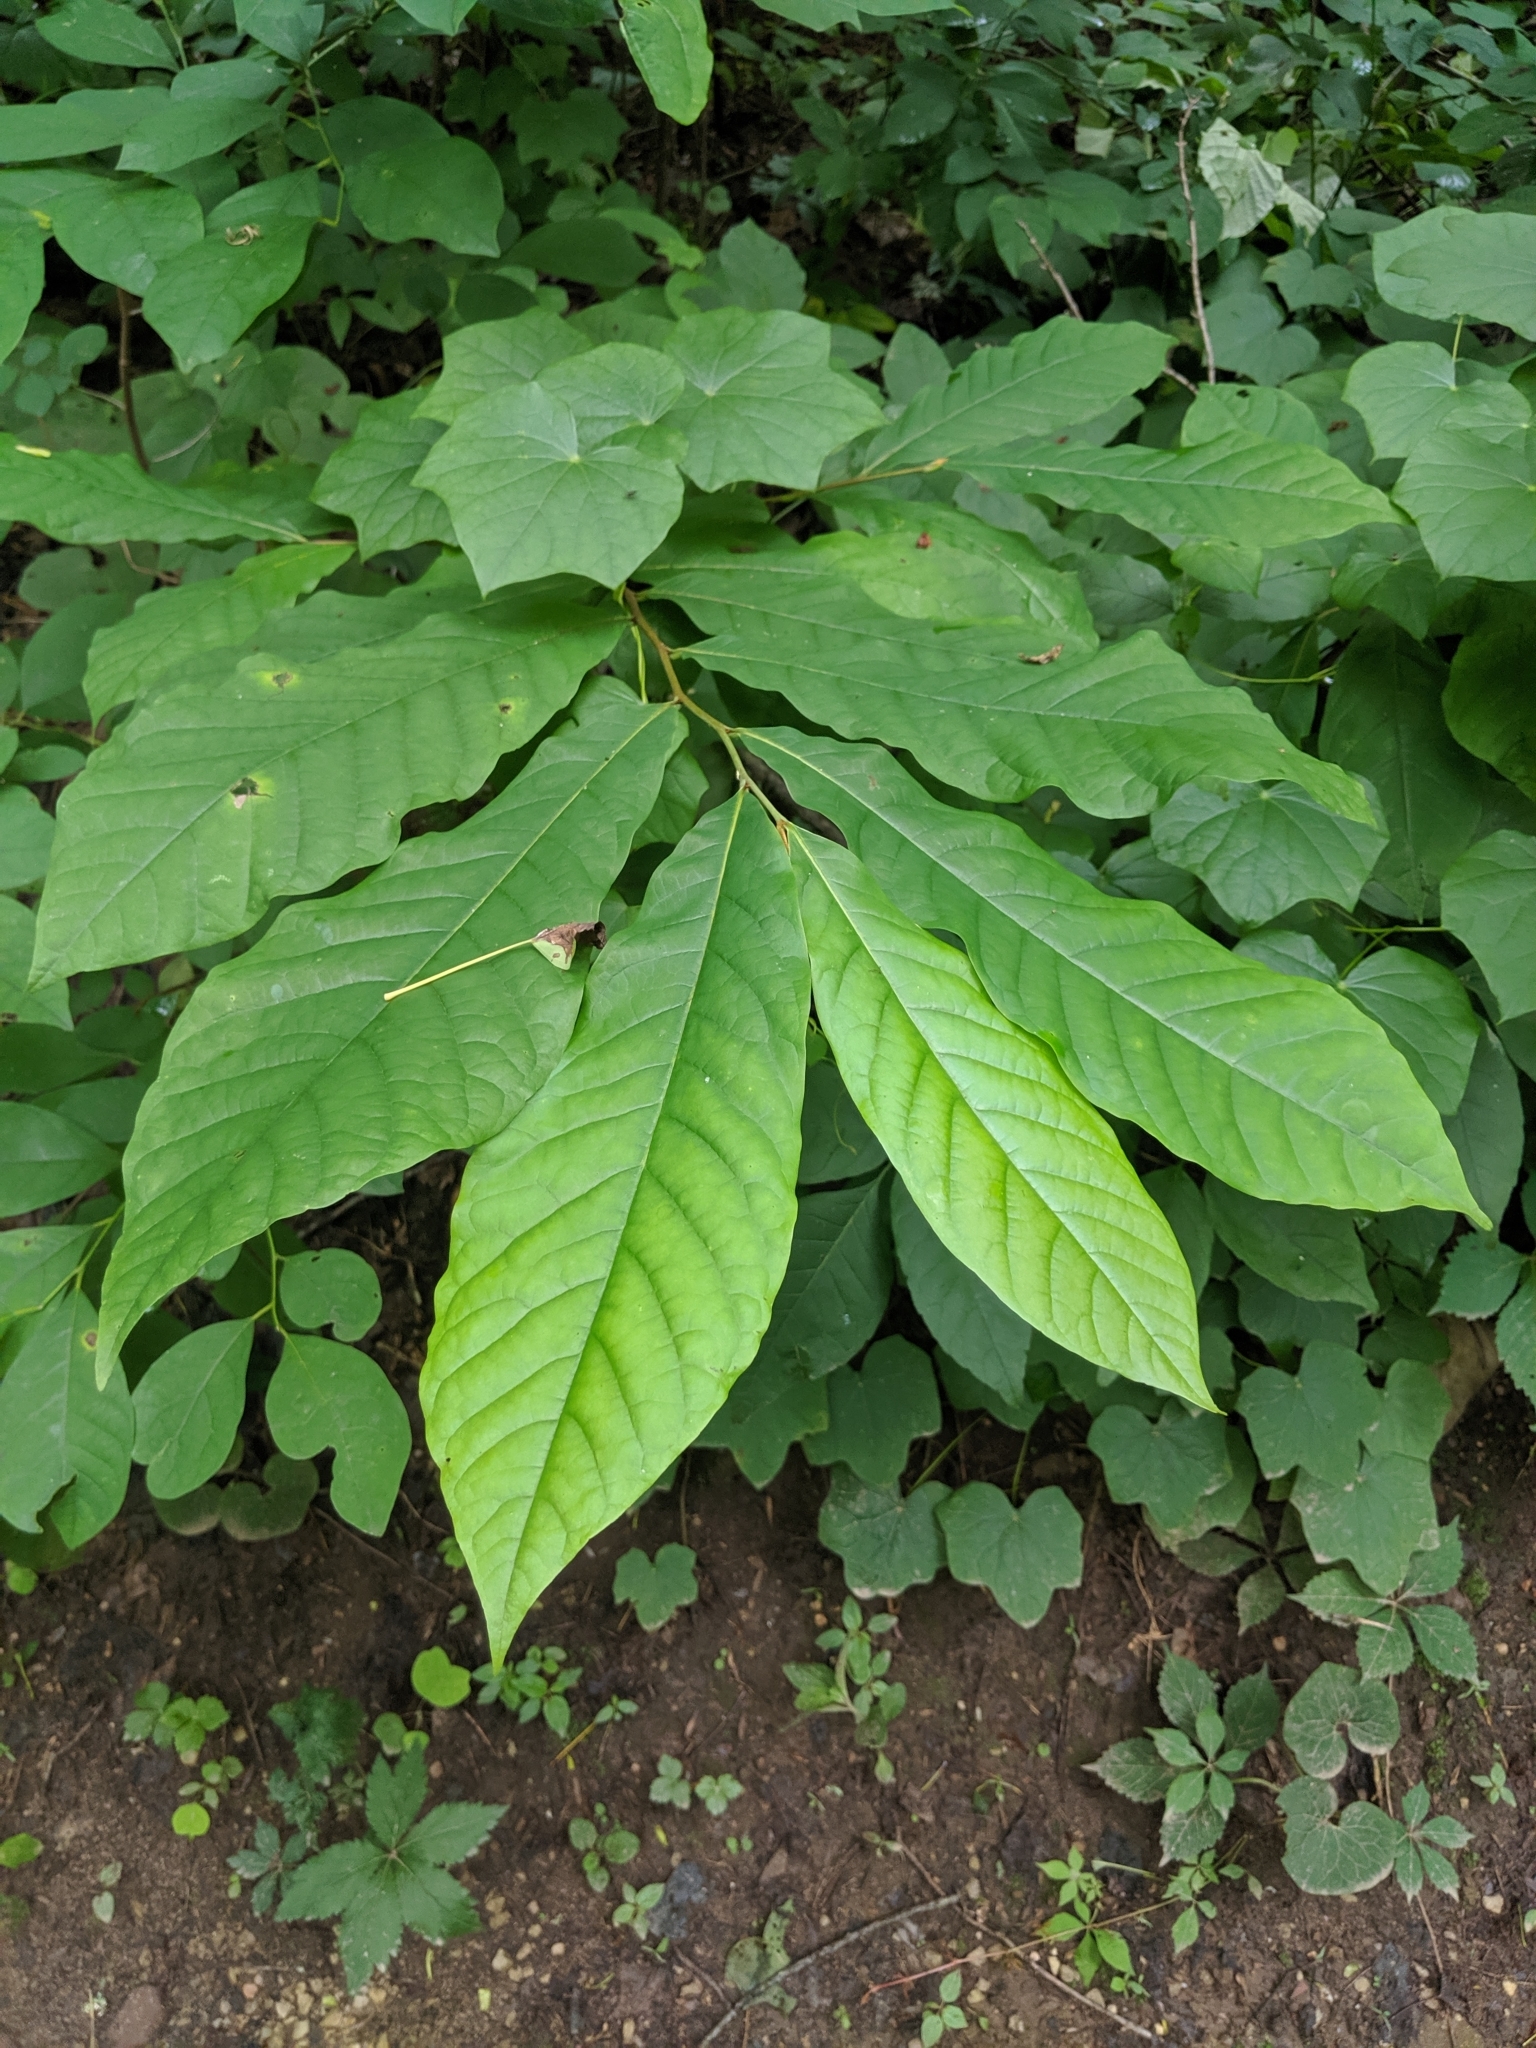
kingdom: Plantae
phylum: Tracheophyta
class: Magnoliopsida
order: Magnoliales
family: Annonaceae
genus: Asimina
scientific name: Asimina triloba
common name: Dog-banana
